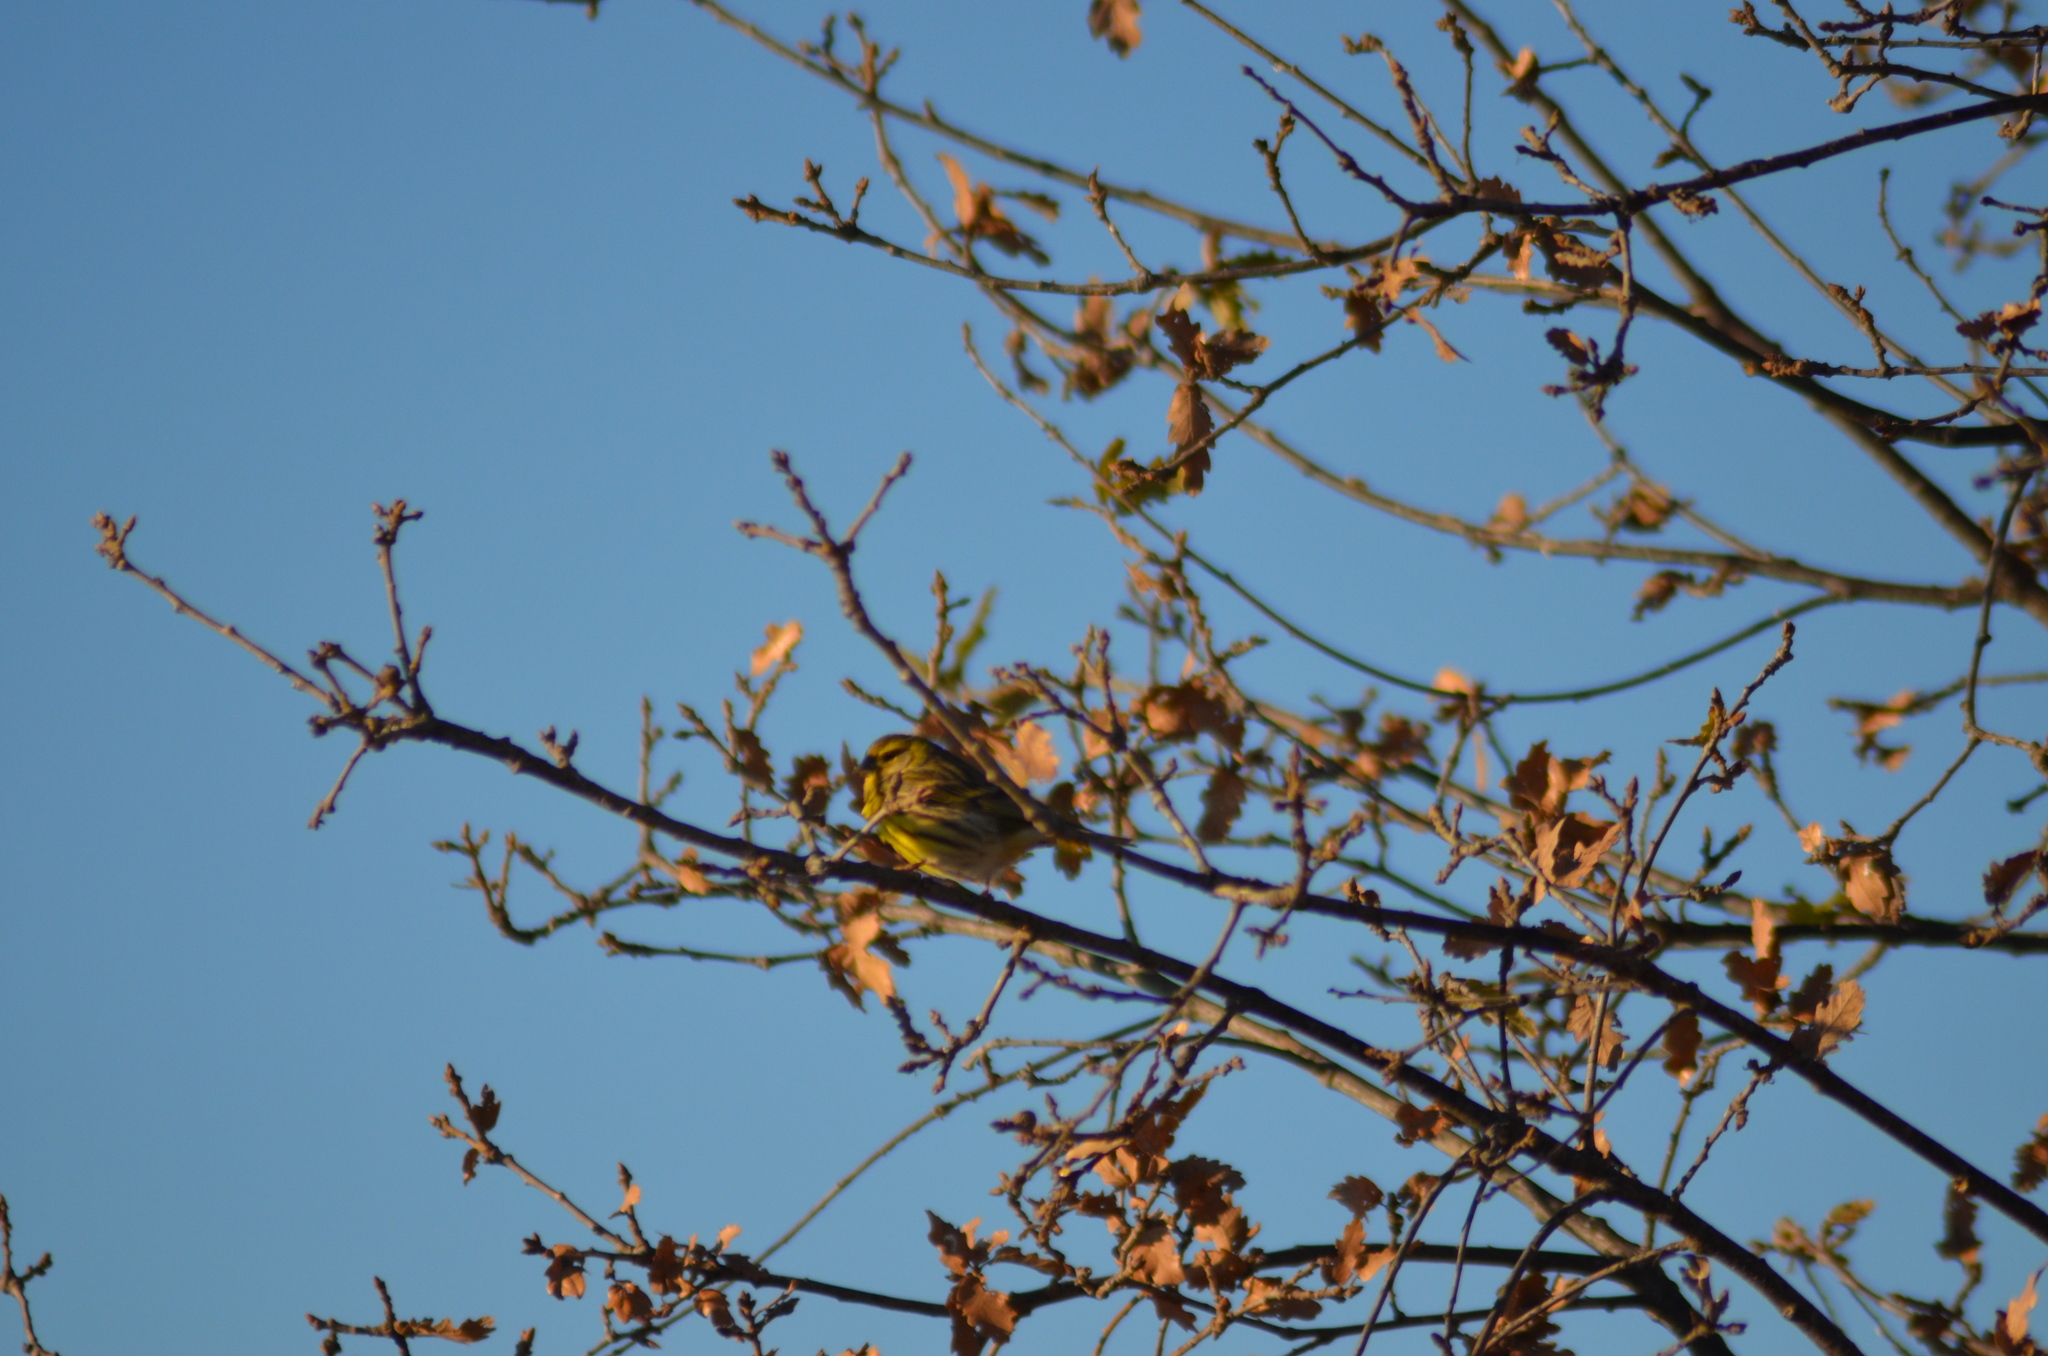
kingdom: Animalia
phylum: Chordata
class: Aves
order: Passeriformes
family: Fringillidae
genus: Serinus
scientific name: Serinus serinus
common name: European serin
